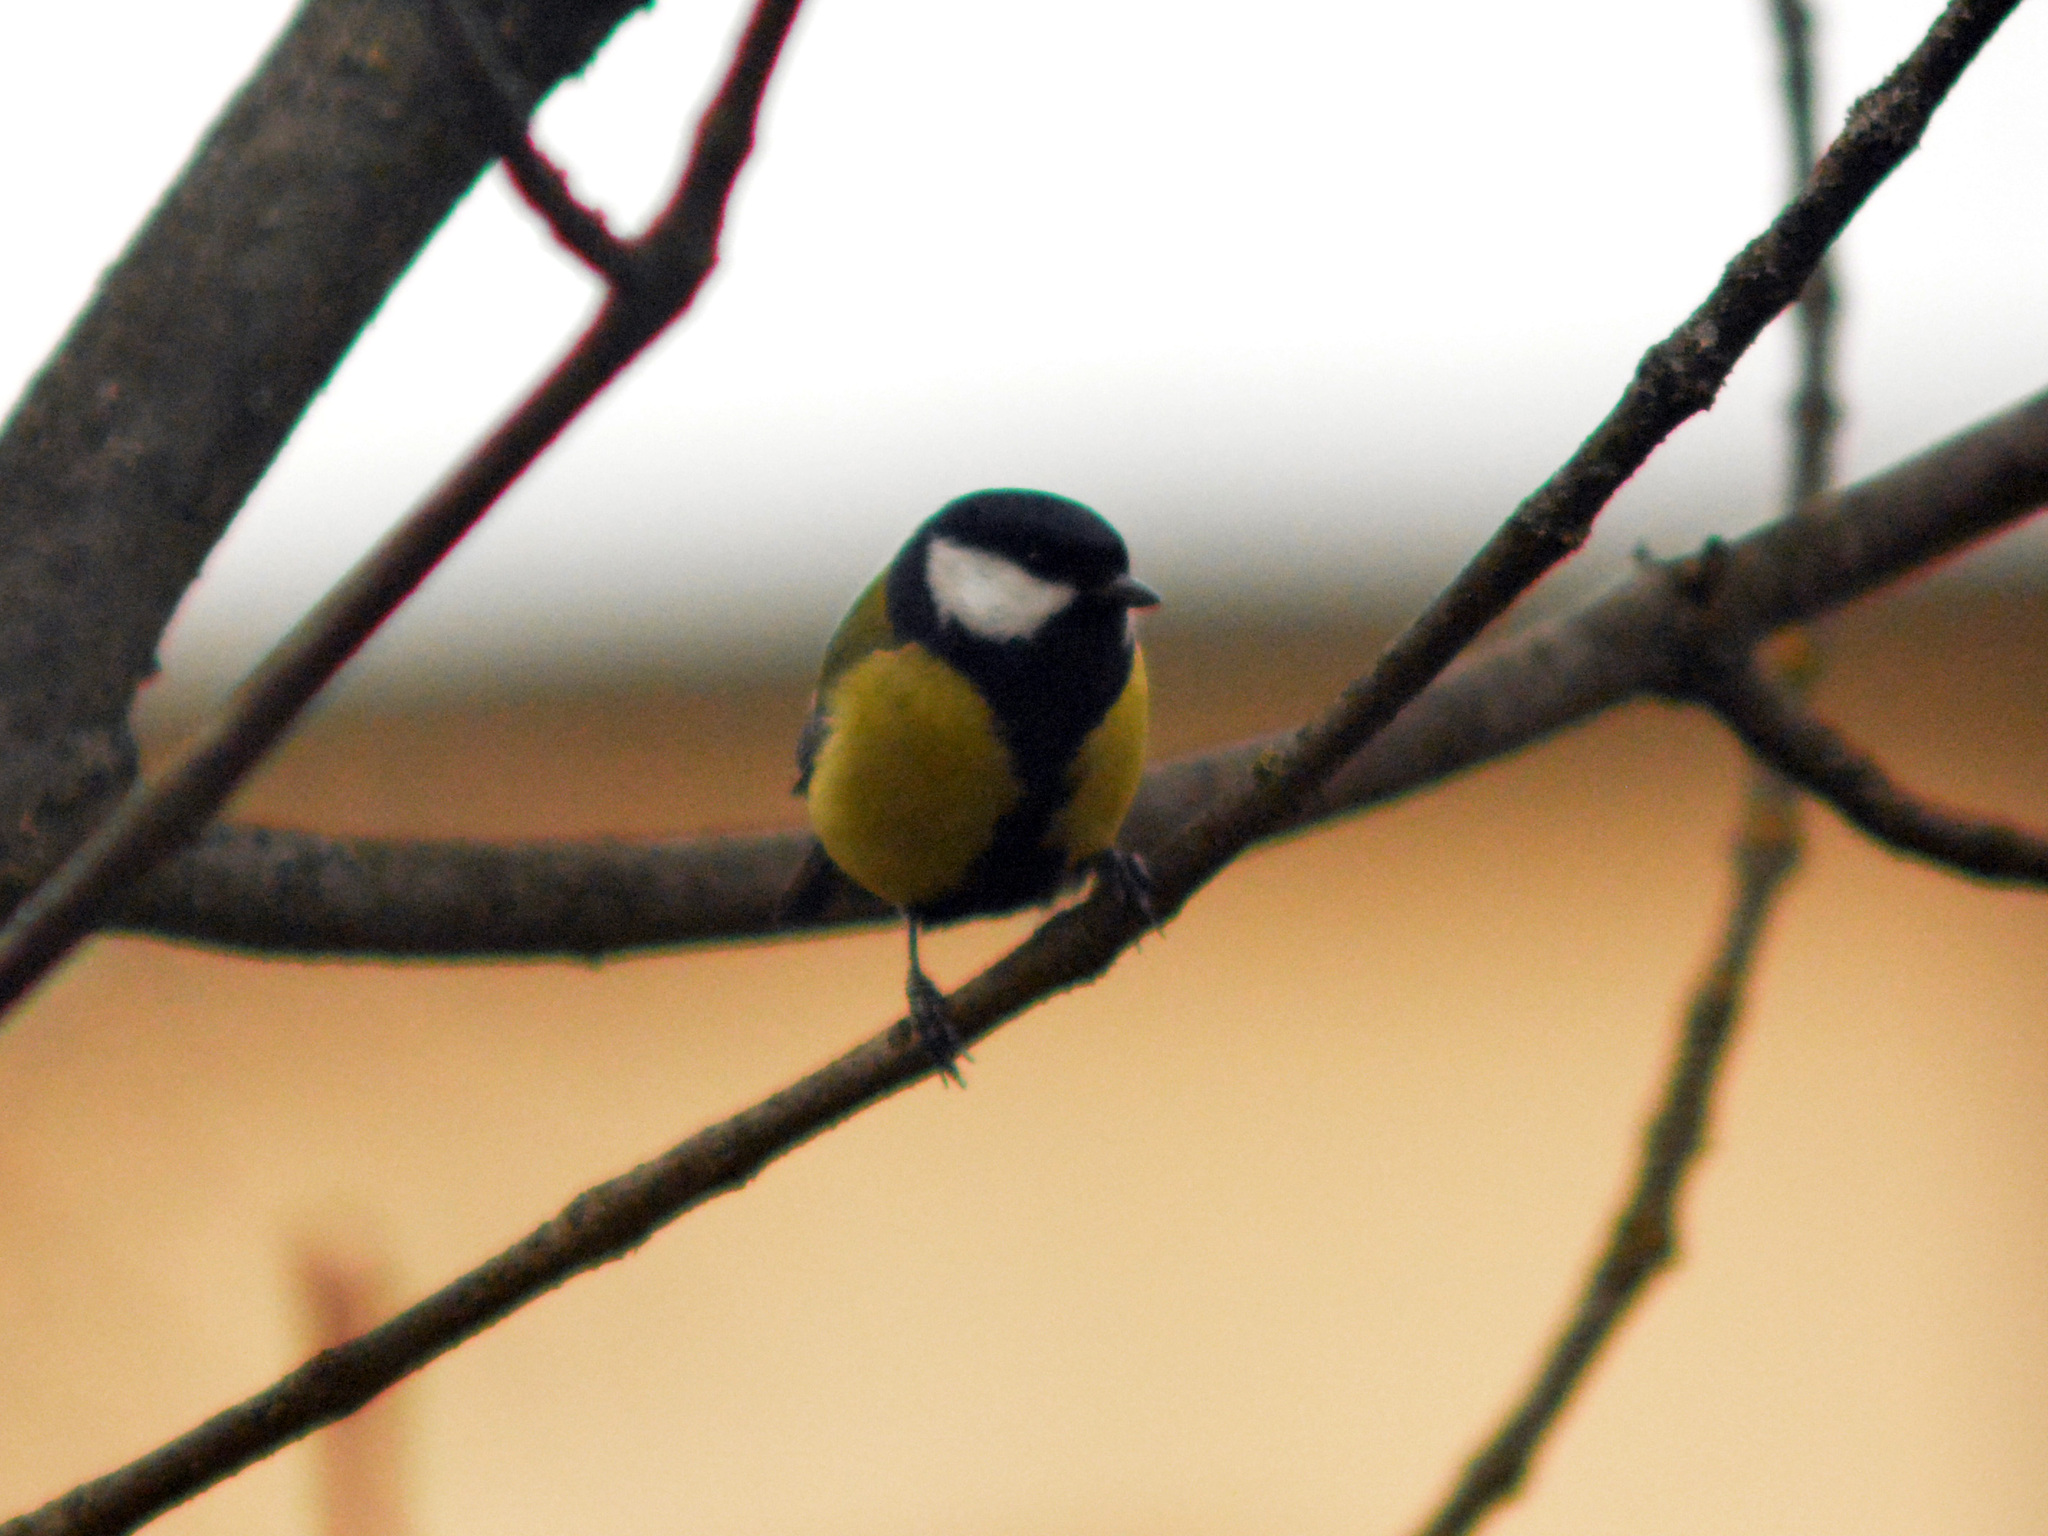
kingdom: Animalia
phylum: Chordata
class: Aves
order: Passeriformes
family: Paridae
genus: Parus
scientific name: Parus major
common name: Great tit
